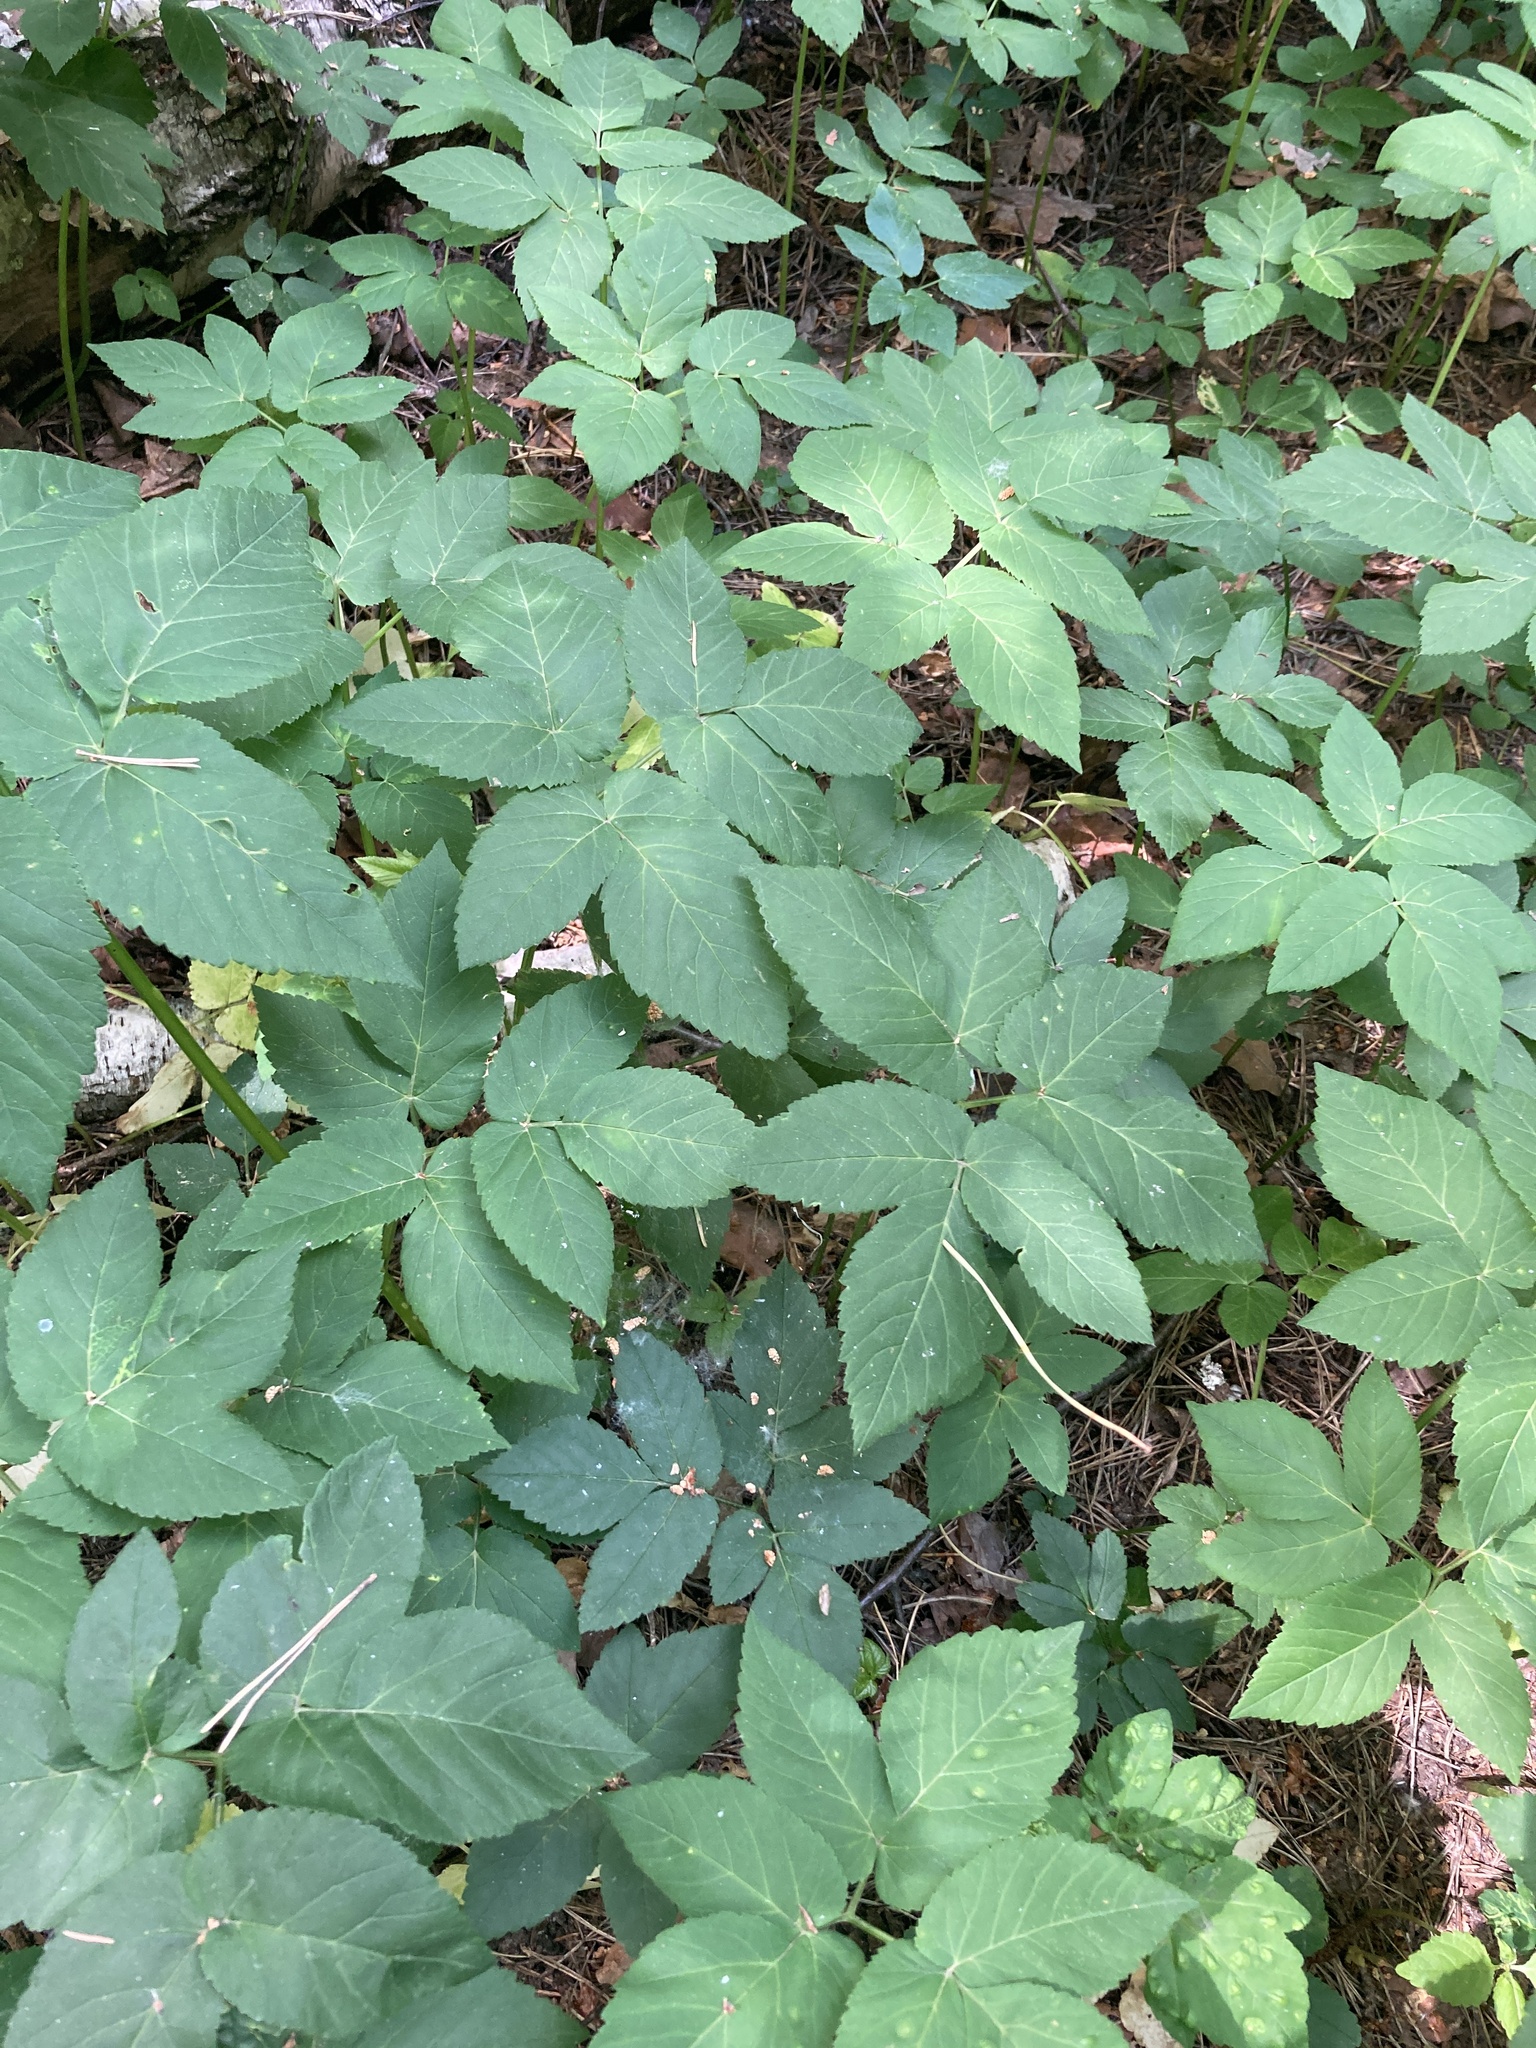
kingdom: Plantae
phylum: Tracheophyta
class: Magnoliopsida
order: Apiales
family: Apiaceae
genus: Aegopodium
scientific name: Aegopodium podagraria
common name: Ground-elder
